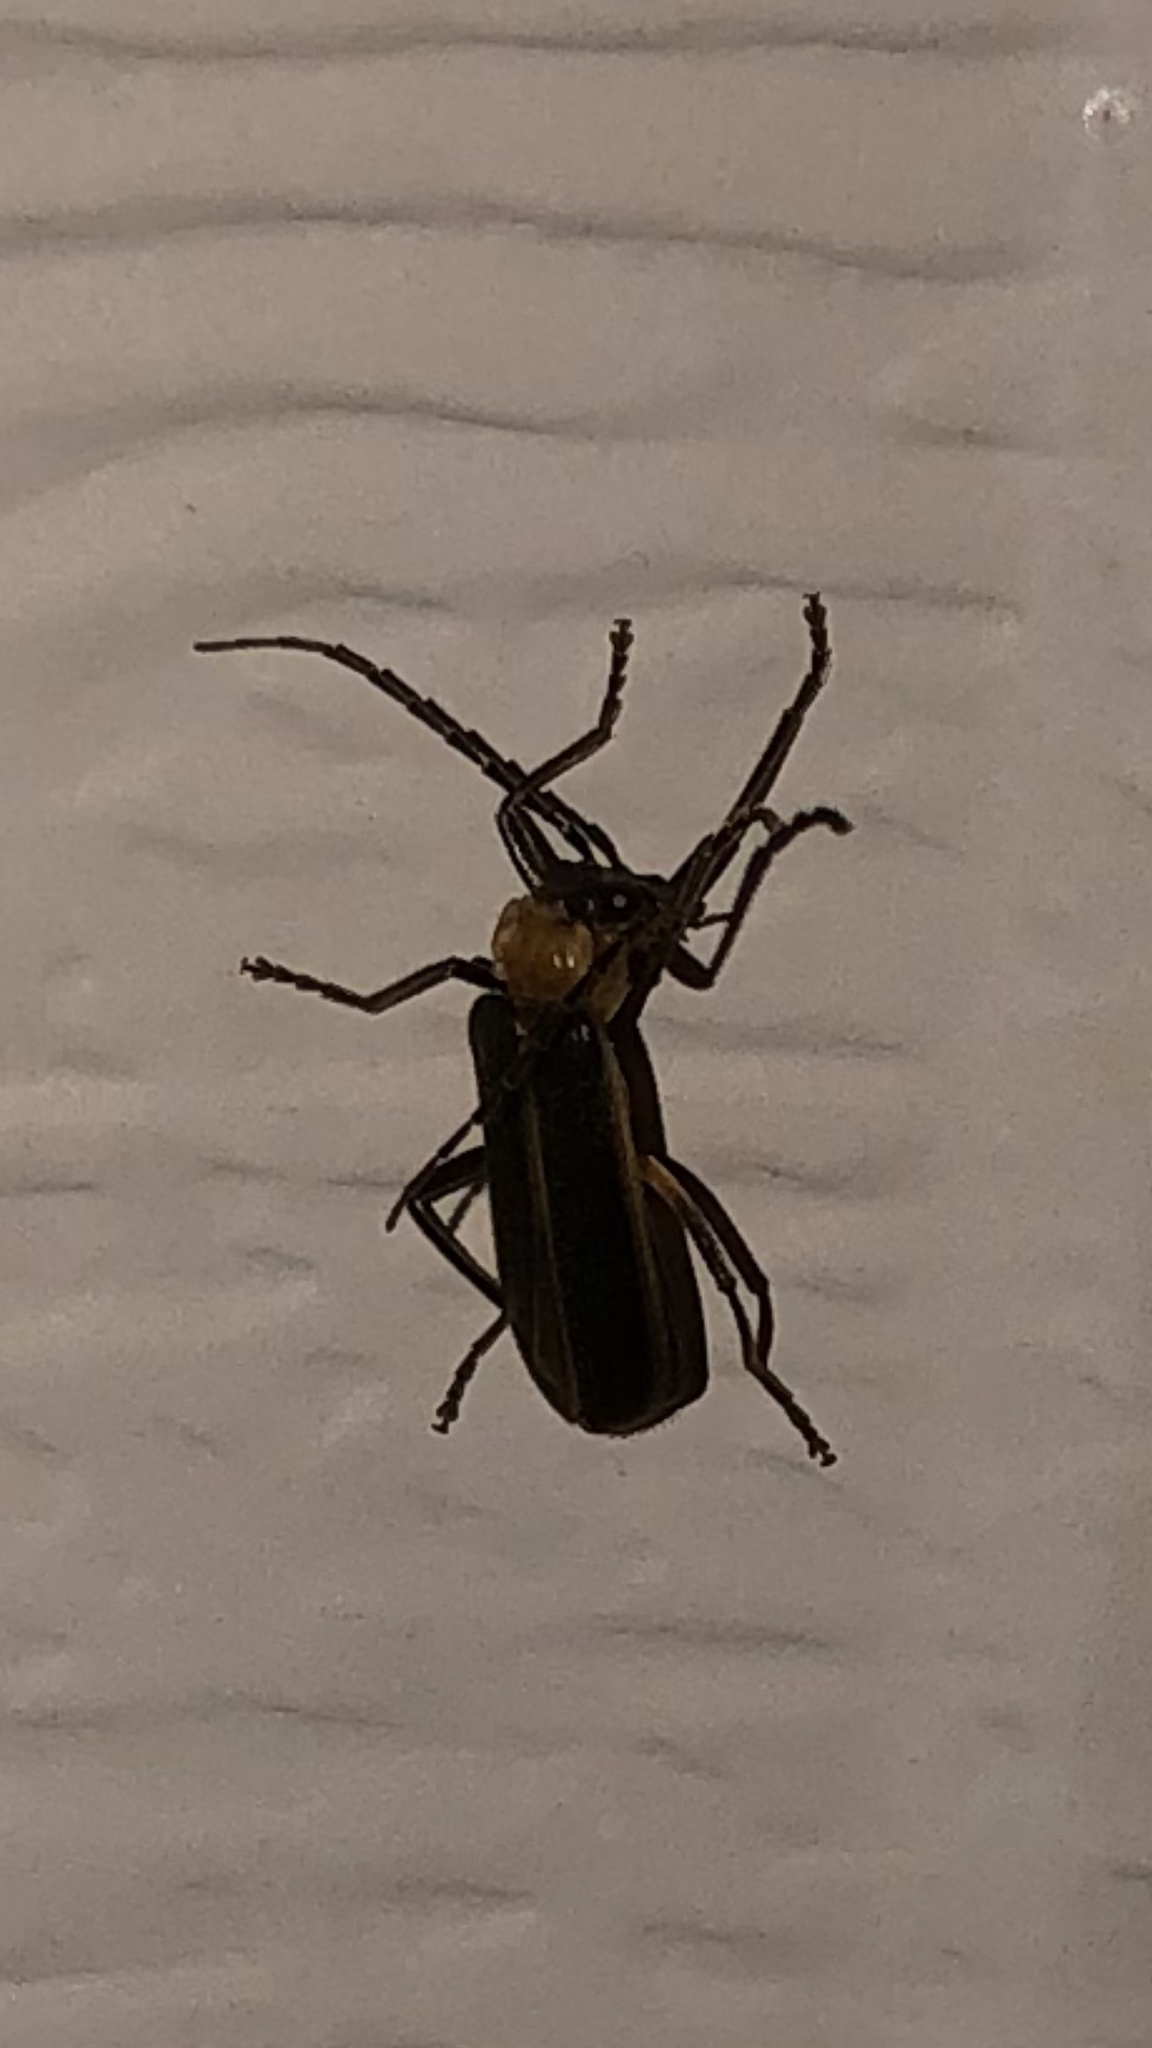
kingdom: Animalia
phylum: Arthropoda
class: Insecta
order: Coleoptera
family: Cantharidae
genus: Podabrus
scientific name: Podabrus flavicollis
